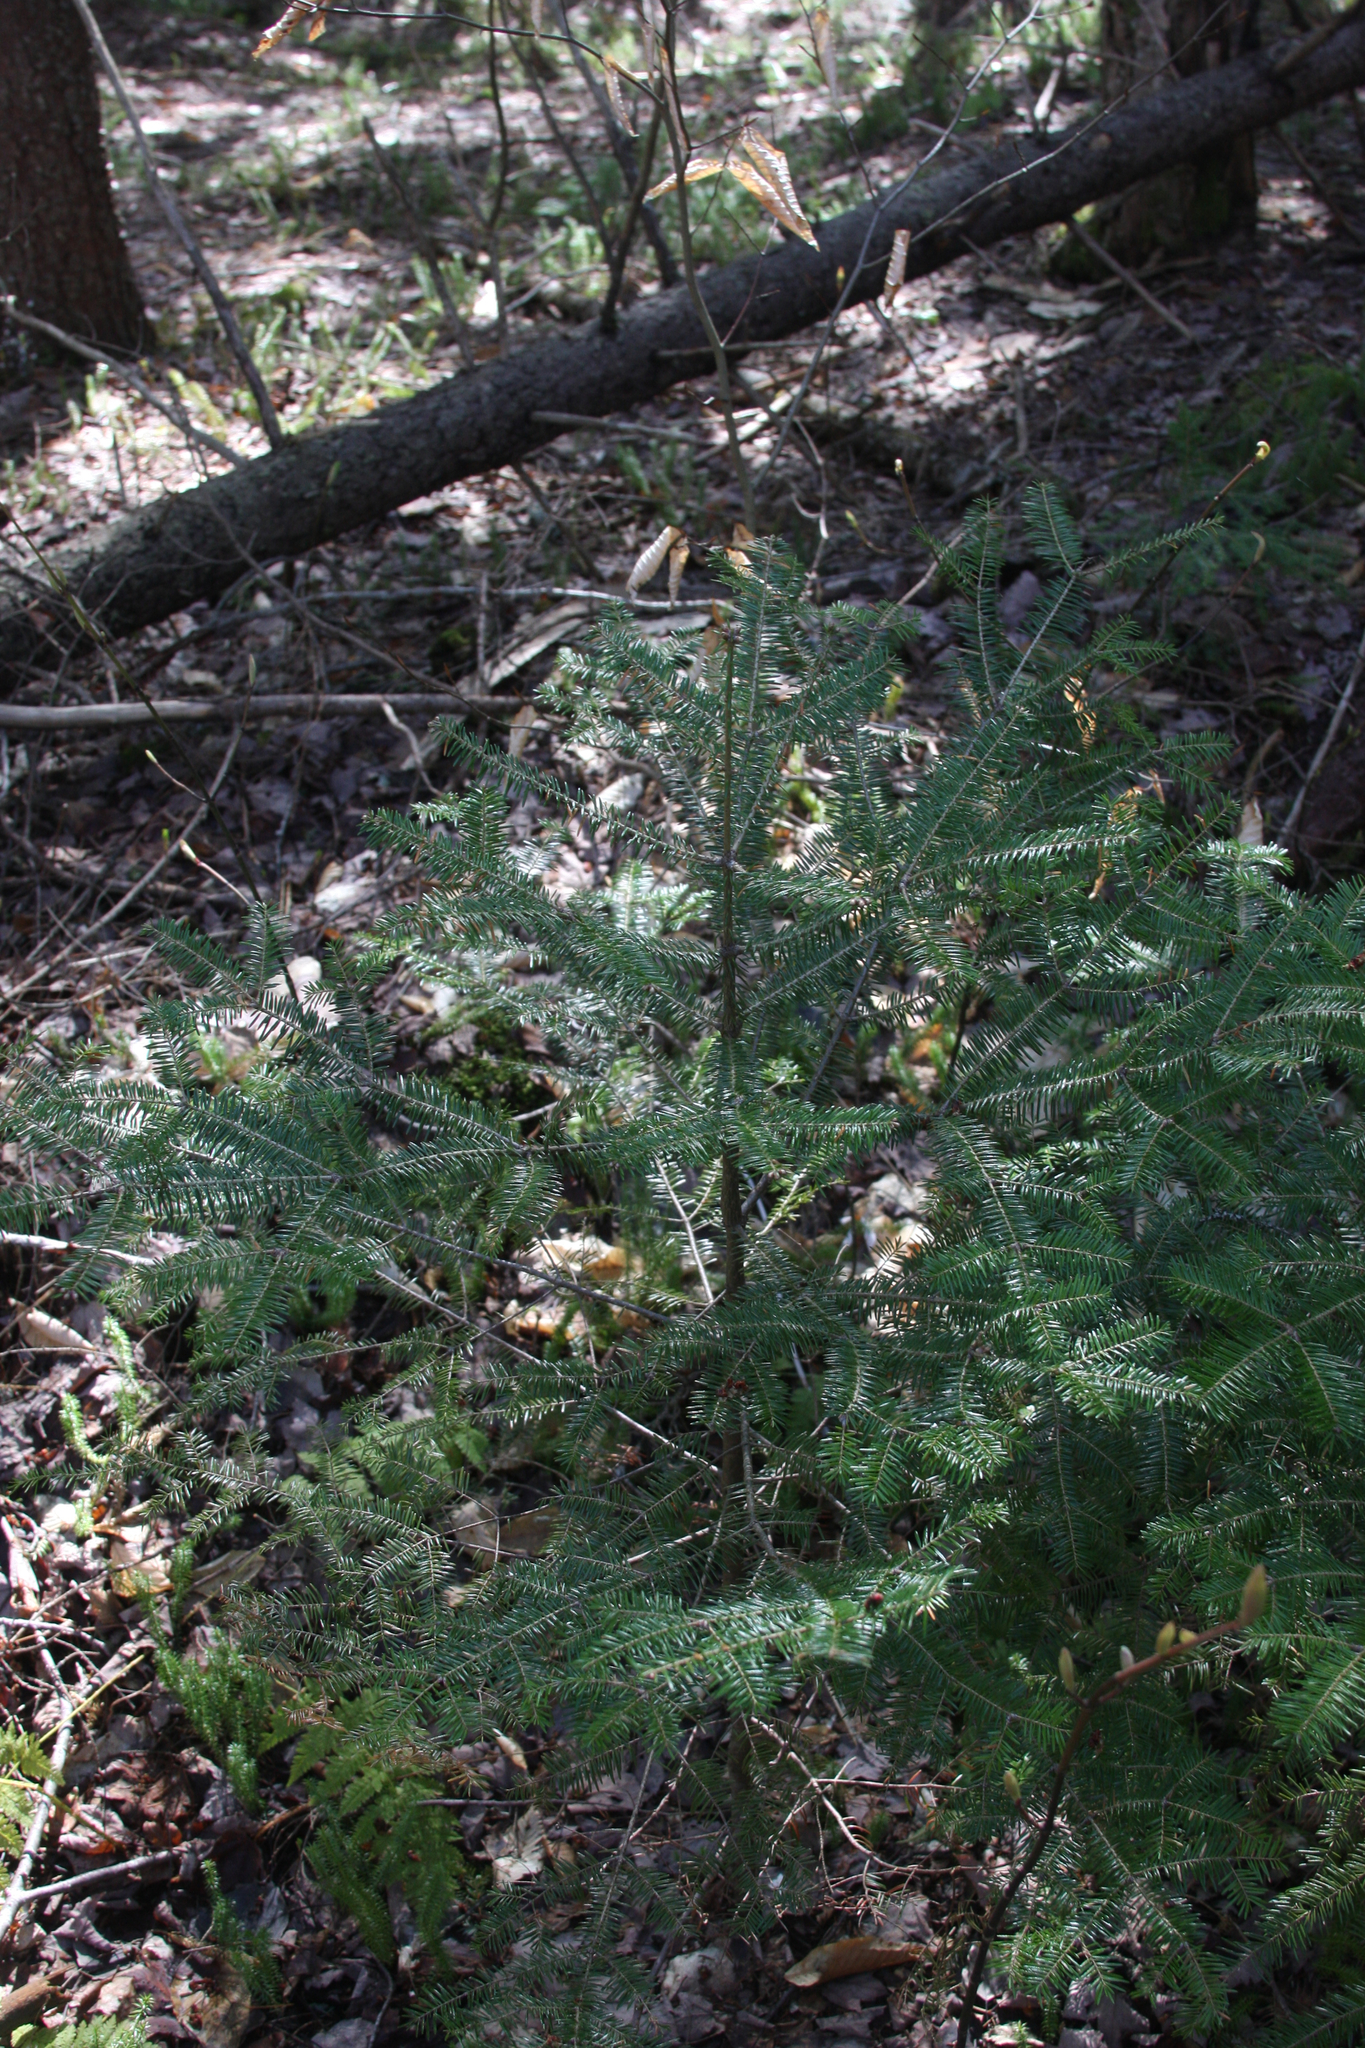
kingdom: Plantae
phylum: Tracheophyta
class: Pinopsida
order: Pinales
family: Pinaceae
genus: Abies
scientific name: Abies balsamea
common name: Balsam fir
